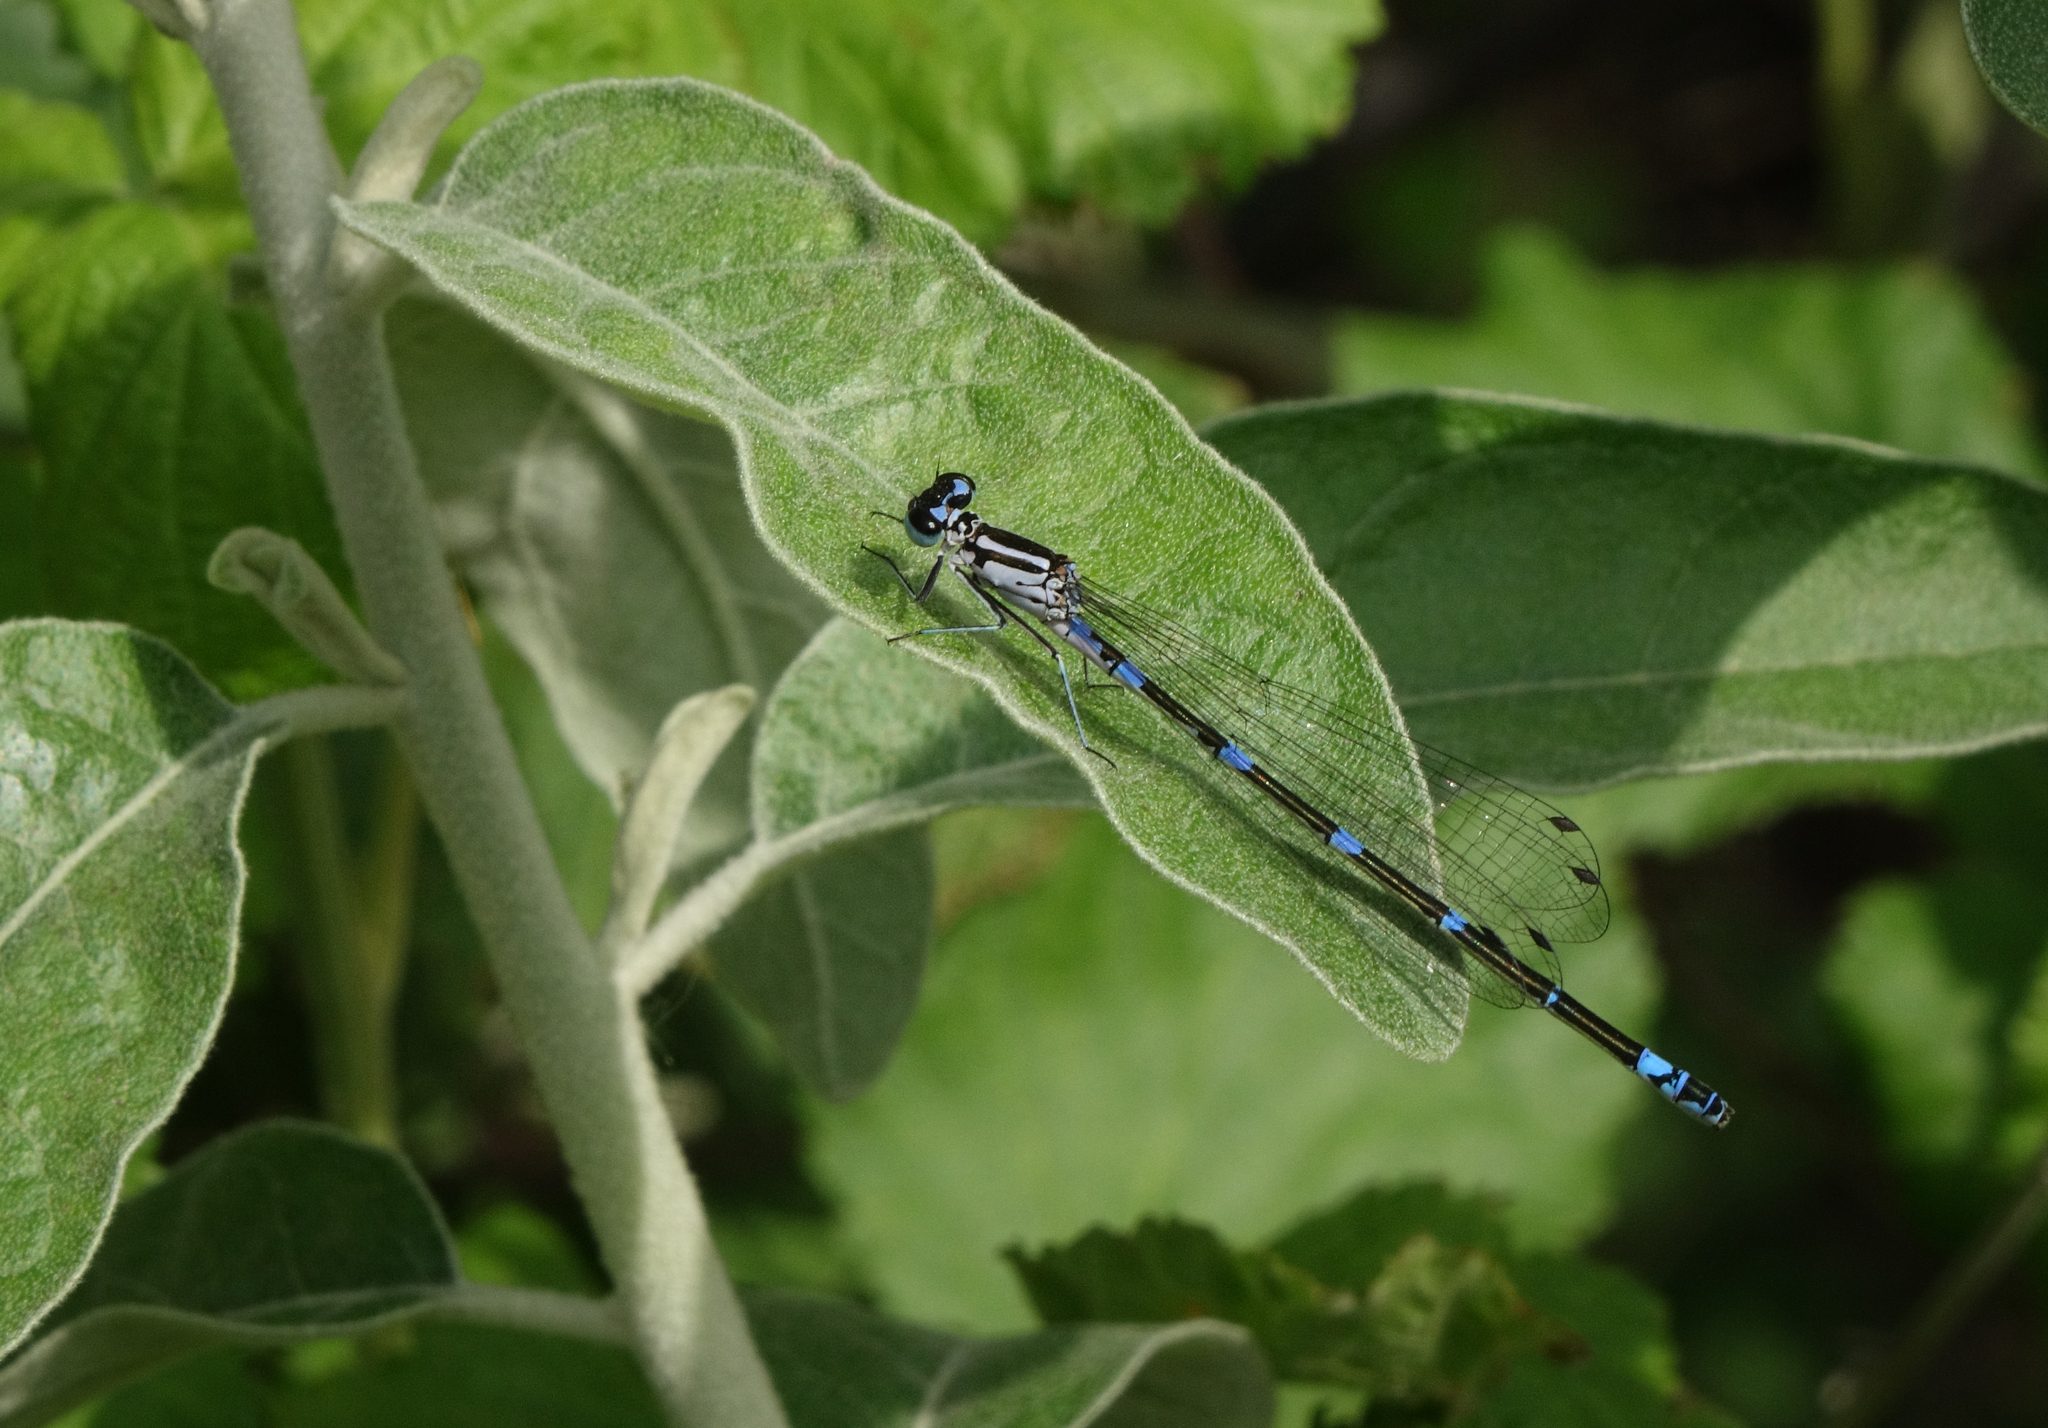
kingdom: Animalia
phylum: Arthropoda
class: Insecta
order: Odonata
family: Coenagrionidae
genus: Coenagrion
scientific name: Coenagrion pulchellum
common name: Variable bluet
